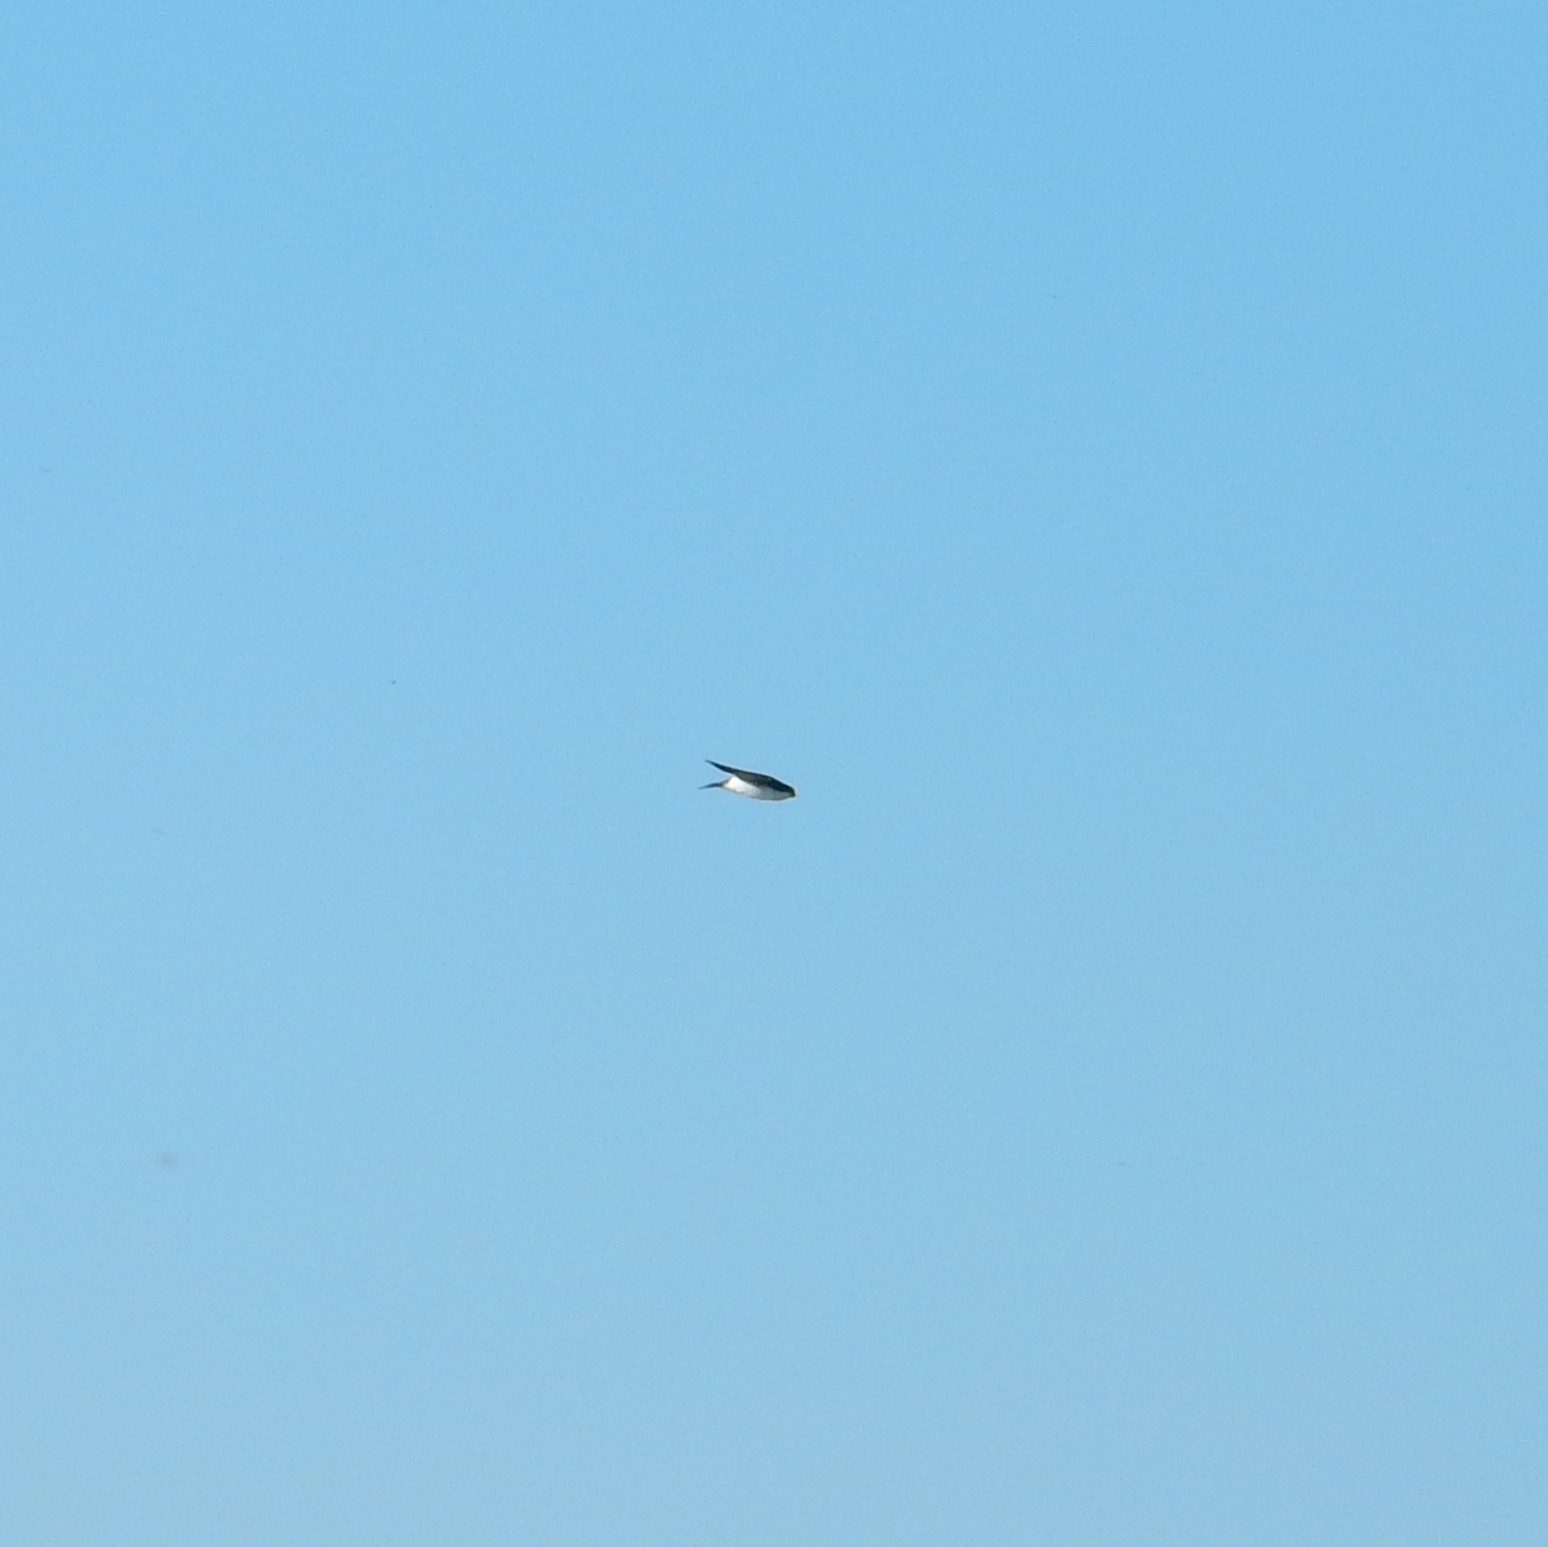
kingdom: Animalia
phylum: Chordata
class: Aves
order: Passeriformes
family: Hirundinidae
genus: Tachycineta
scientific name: Tachycineta bicolor
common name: Tree swallow
